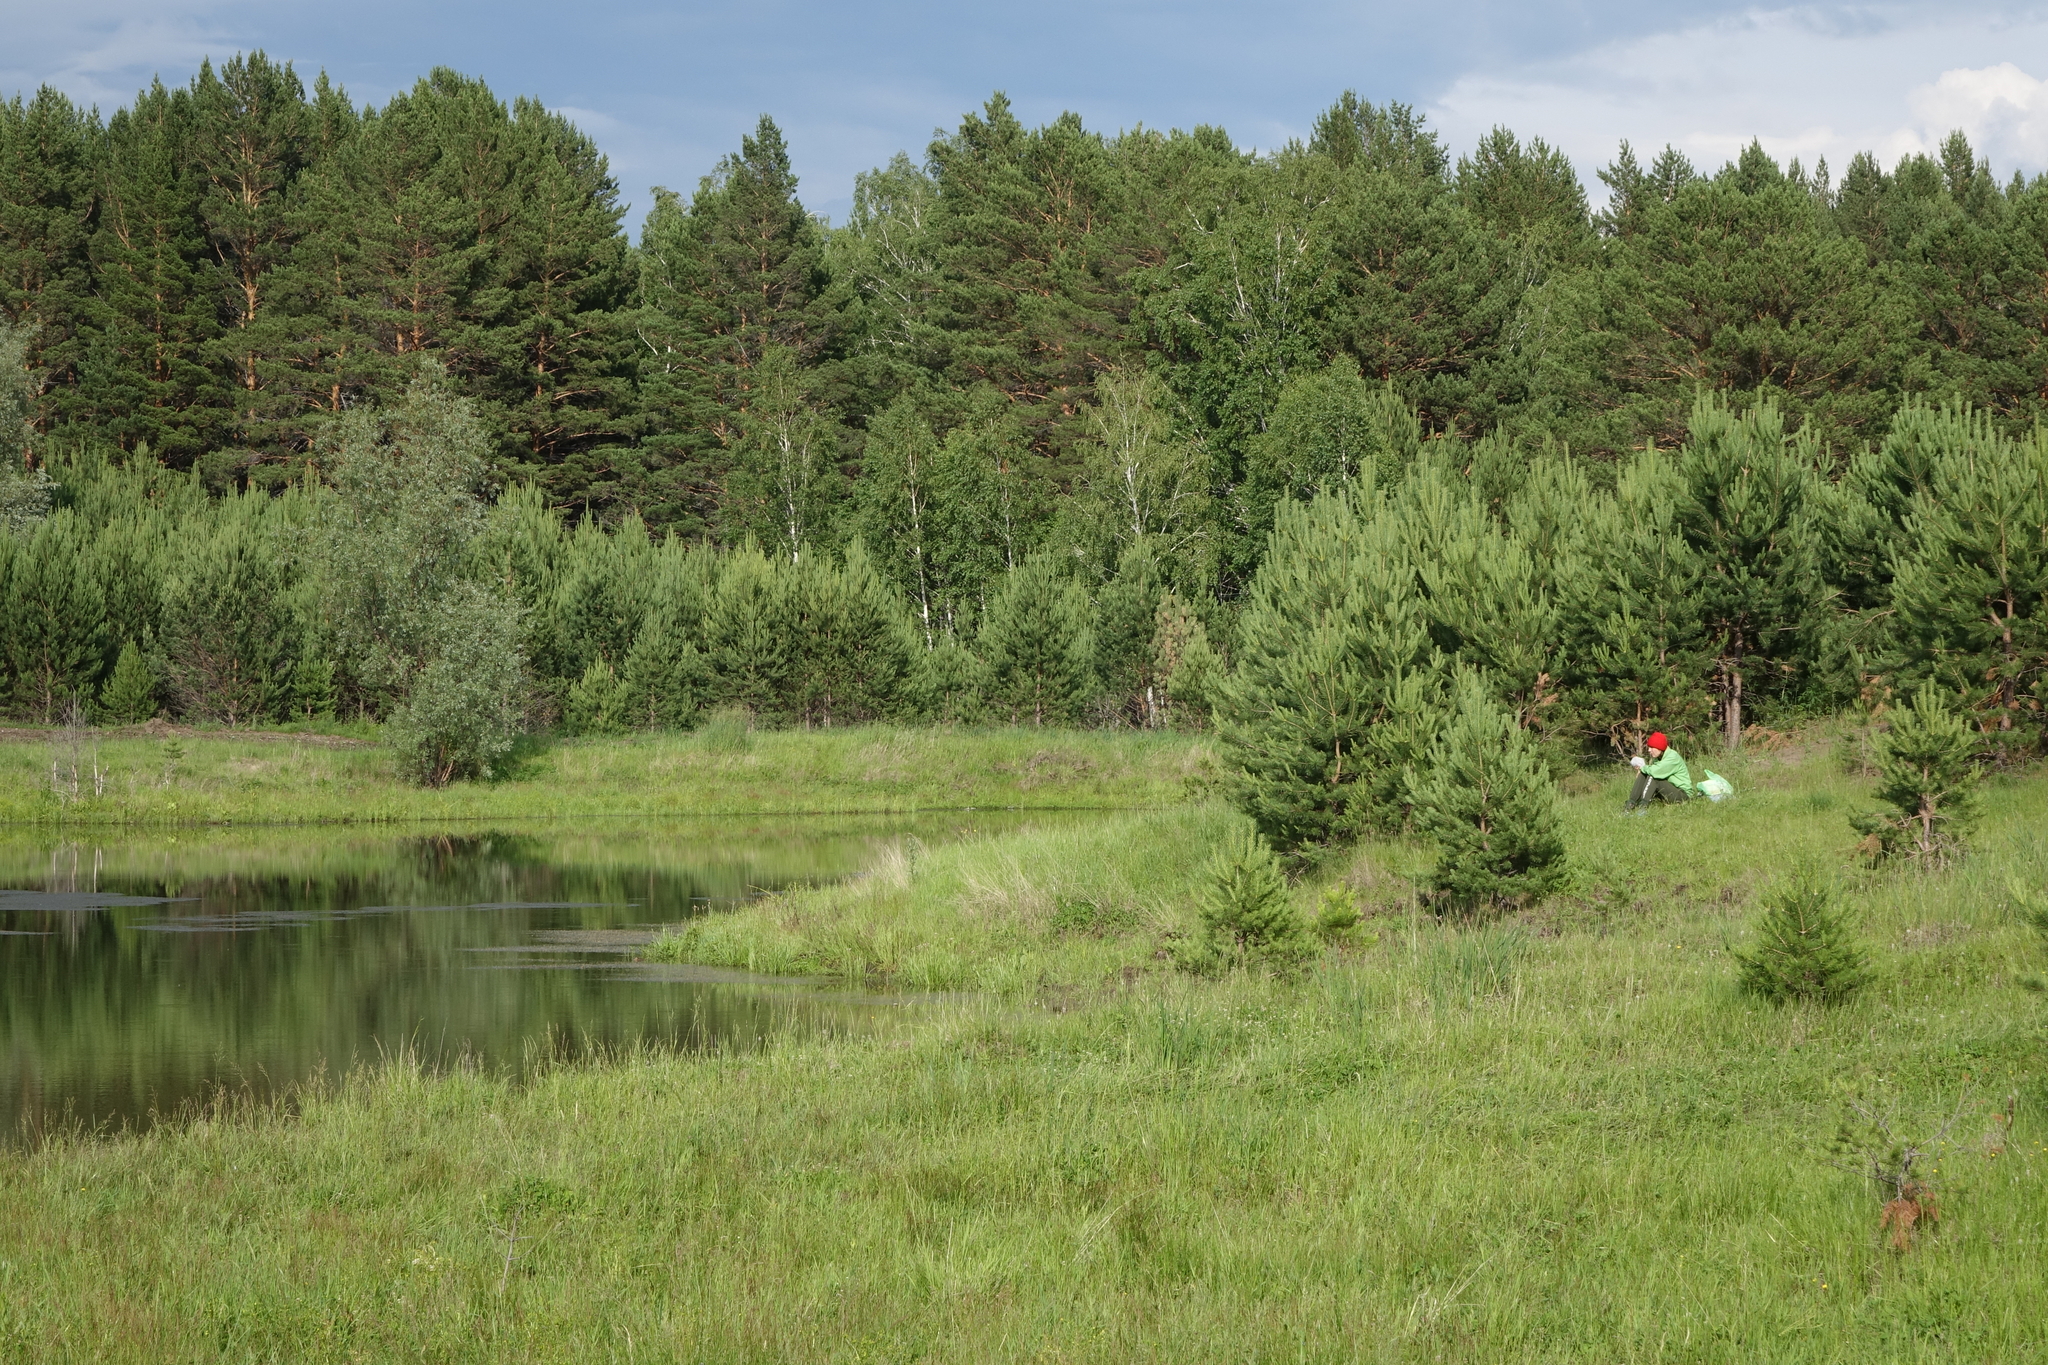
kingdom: Plantae
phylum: Tracheophyta
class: Pinopsida
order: Pinales
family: Pinaceae
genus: Pinus
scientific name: Pinus sylvestris
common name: Scots pine
